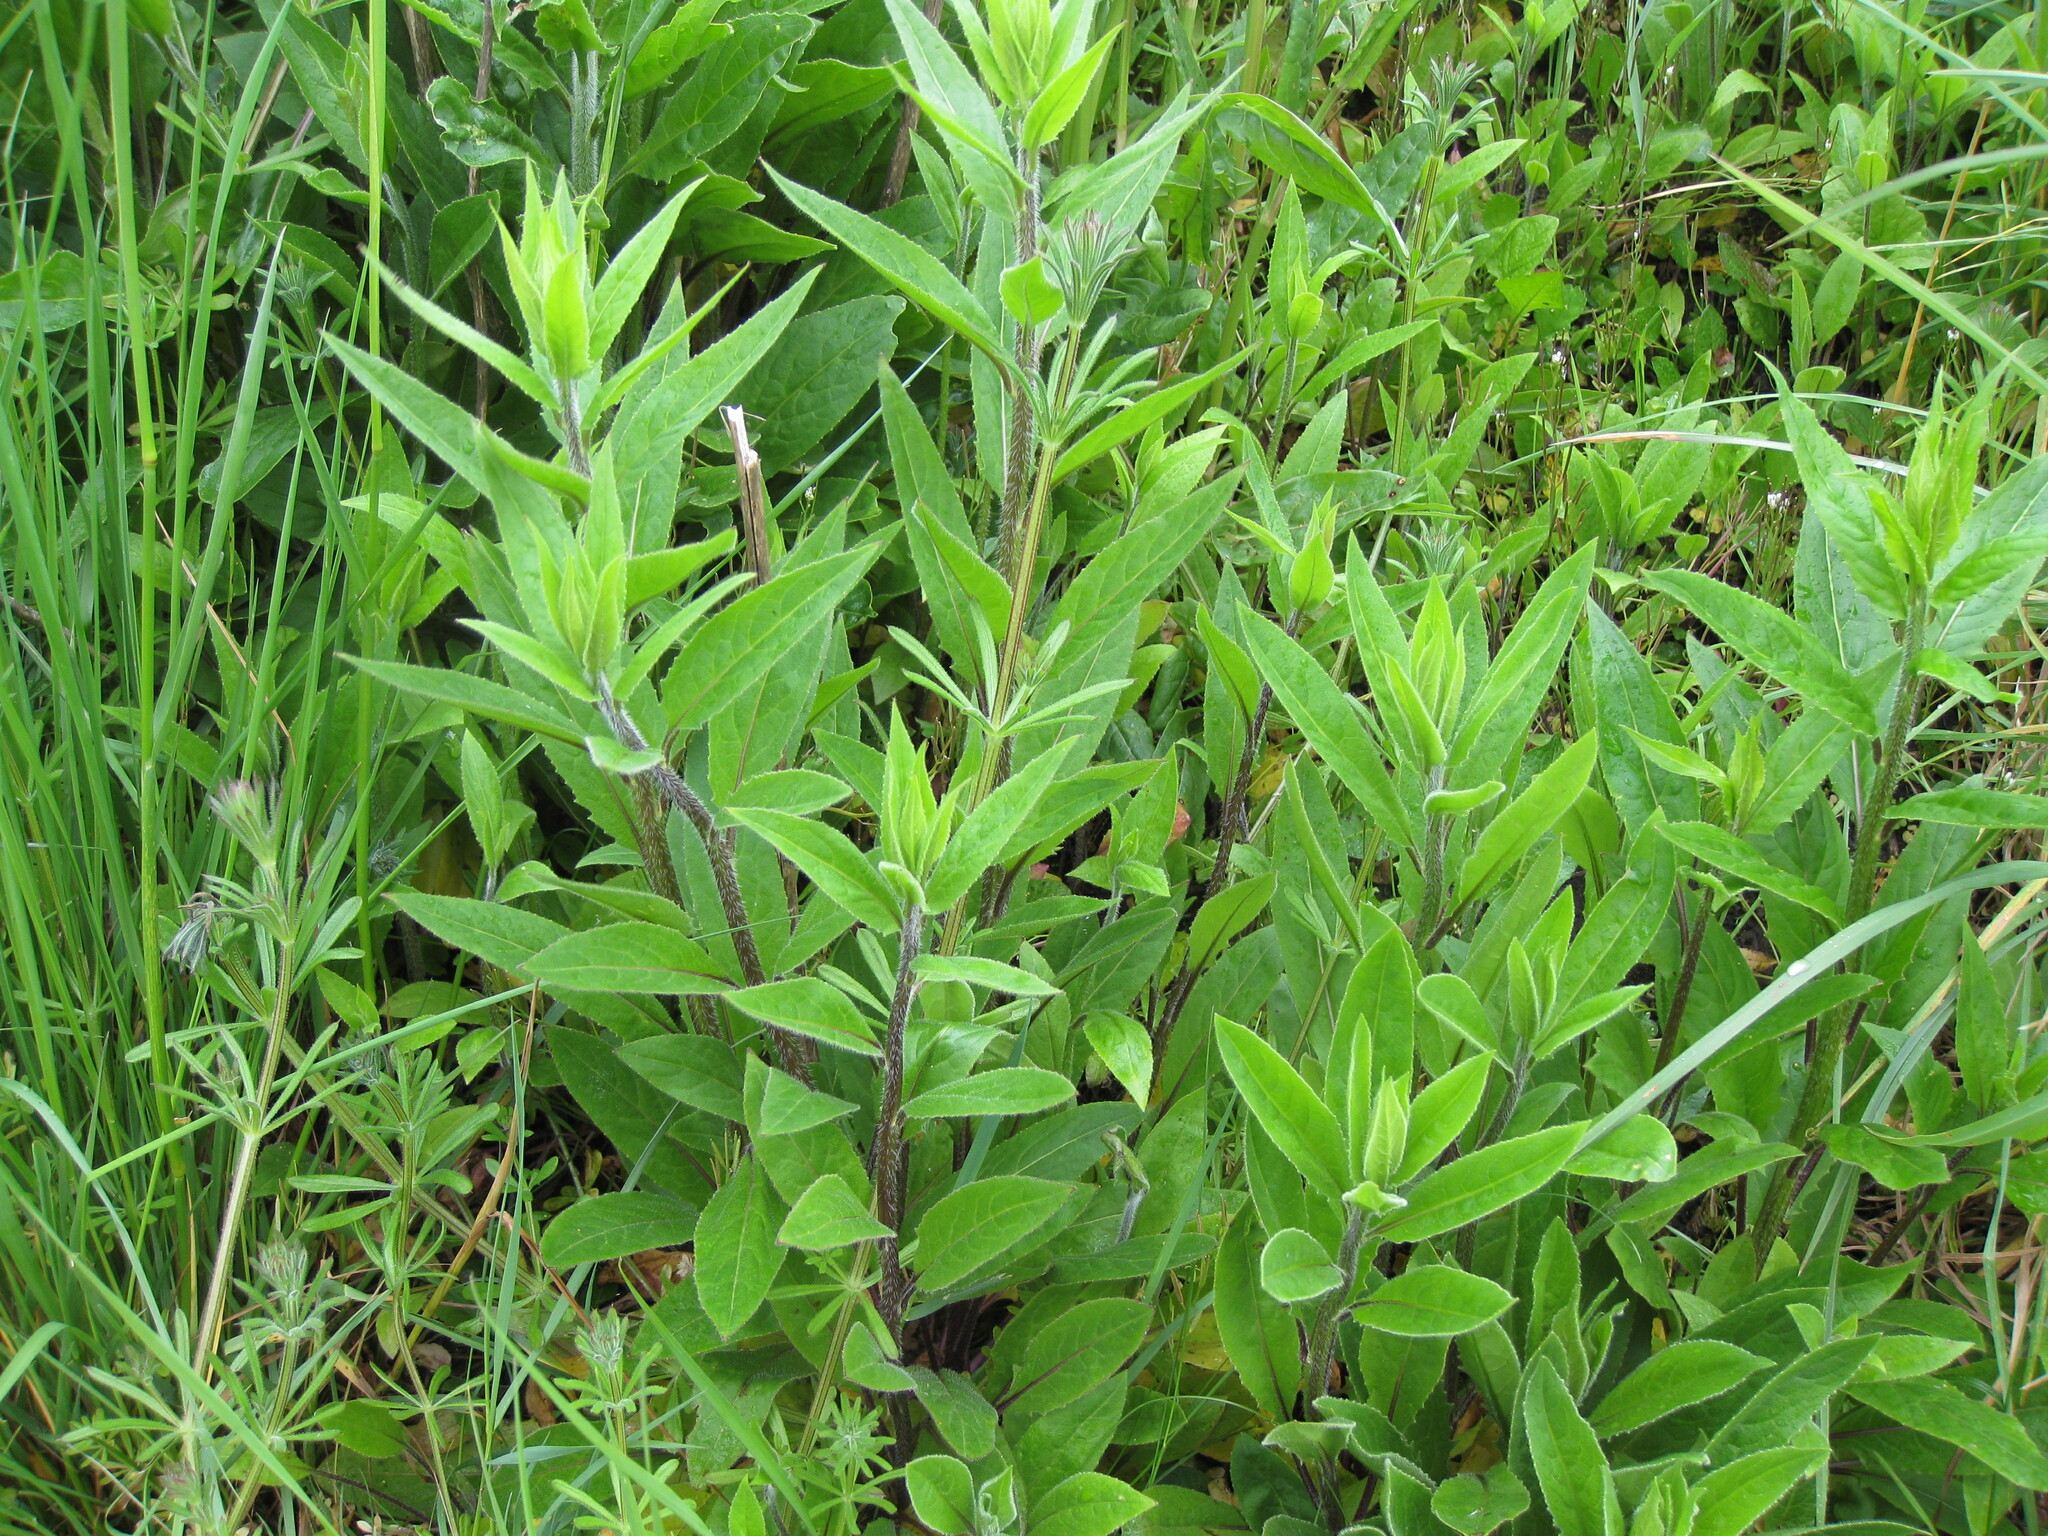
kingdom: Plantae
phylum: Tracheophyta
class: Magnoliopsida
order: Brassicales
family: Brassicaceae
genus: Hesperis
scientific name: Hesperis matronalis
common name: Dame's-violet
